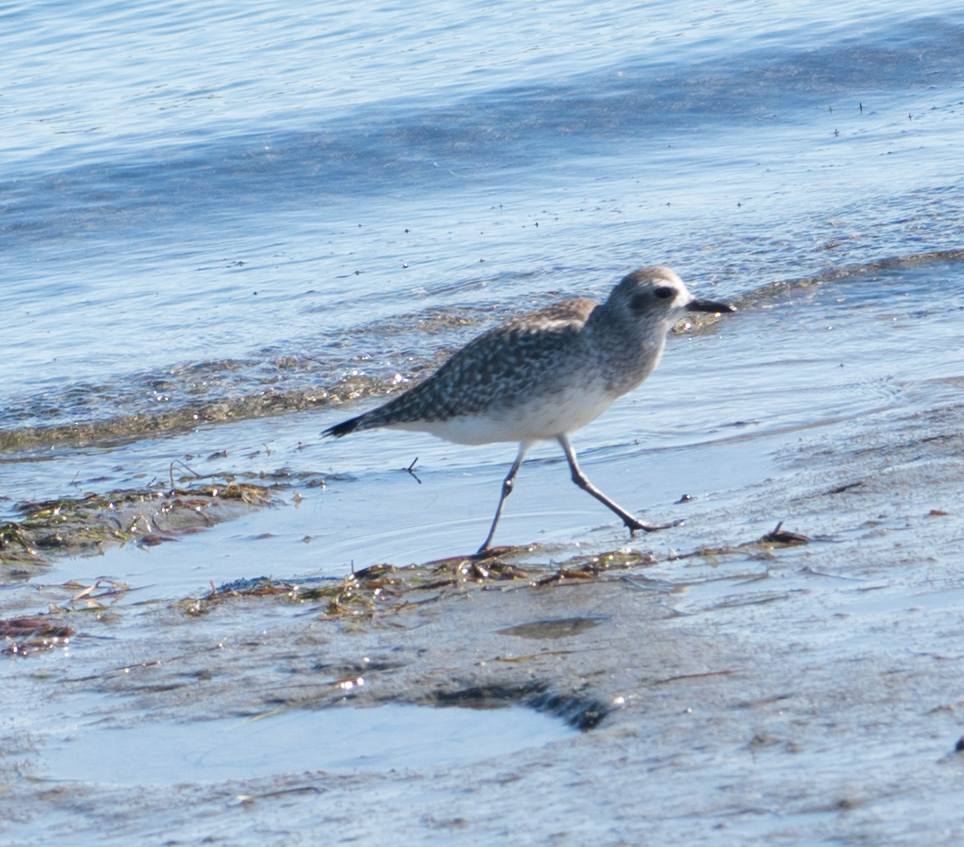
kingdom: Animalia
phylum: Chordata
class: Aves
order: Charadriiformes
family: Charadriidae
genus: Pluvialis
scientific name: Pluvialis squatarola
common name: Grey plover
